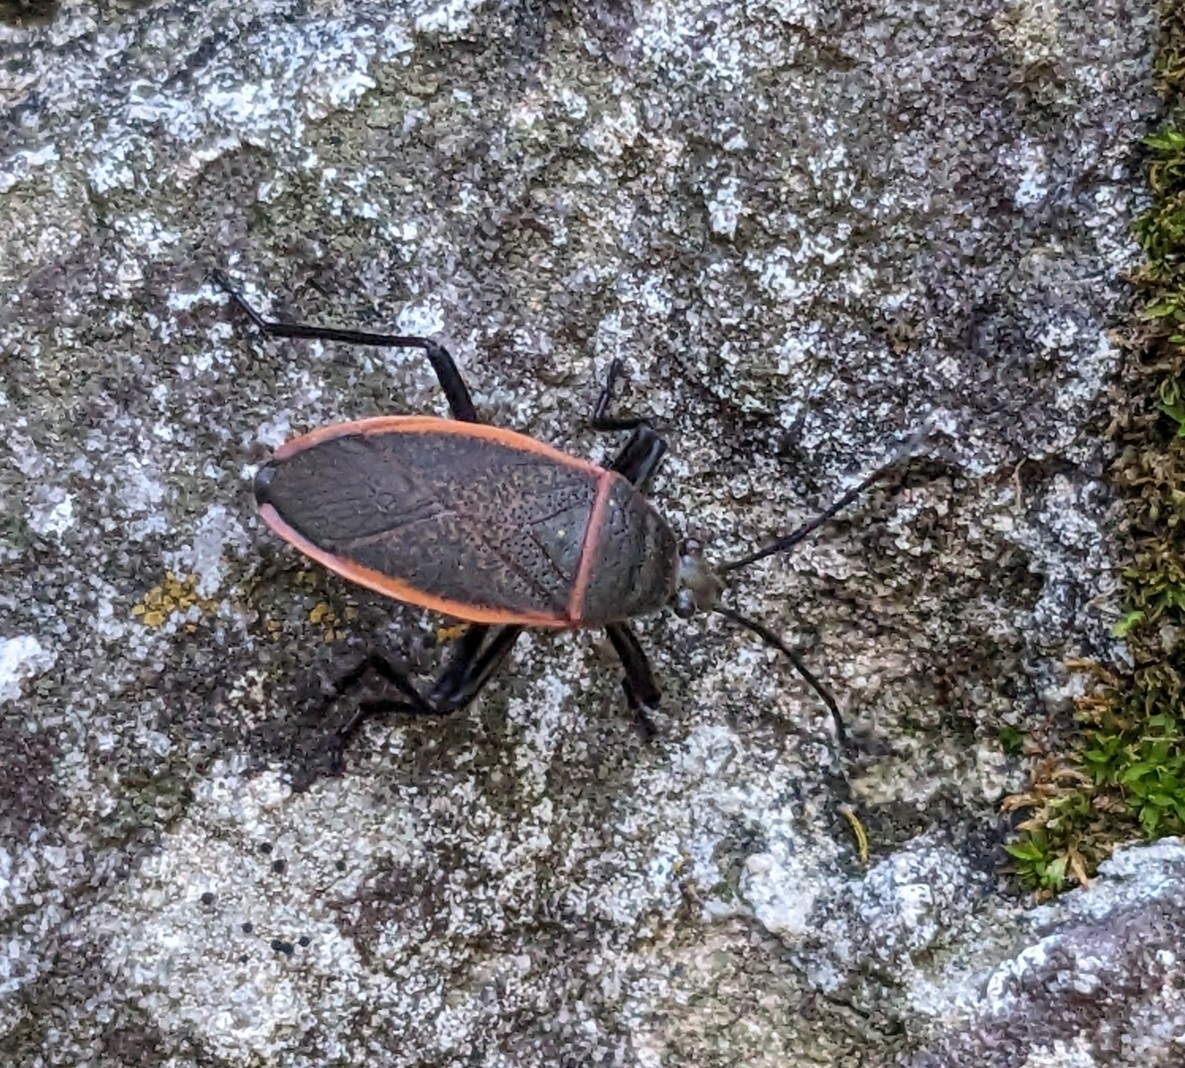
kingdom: Animalia
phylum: Arthropoda
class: Insecta
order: Hemiptera
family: Largidae
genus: Largus
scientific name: Largus californicus
